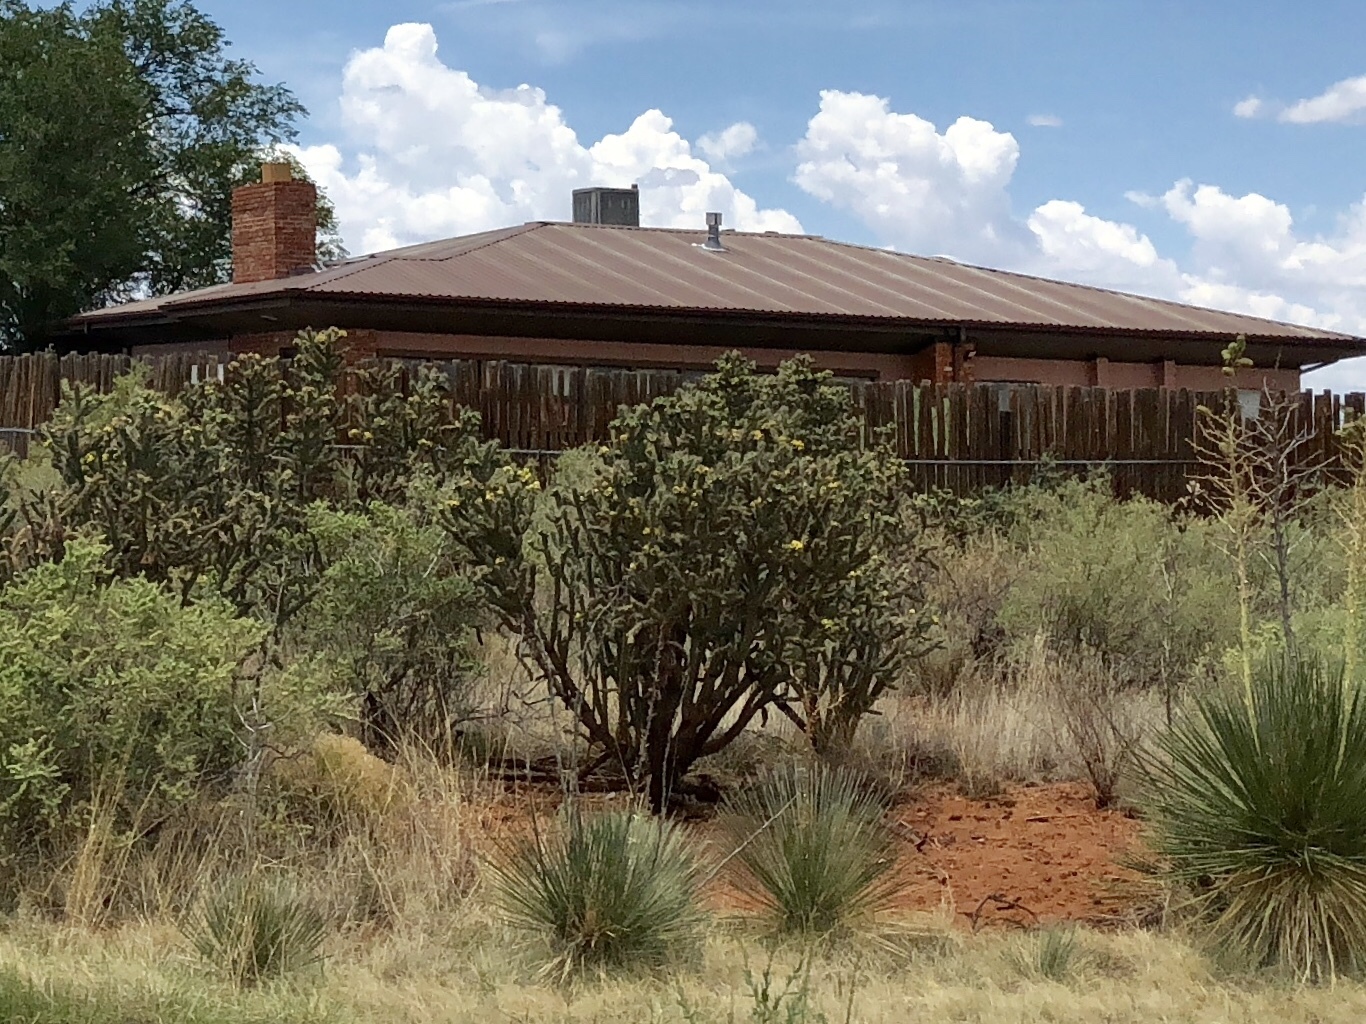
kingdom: Plantae
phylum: Tracheophyta
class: Magnoliopsida
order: Caryophyllales
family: Cactaceae
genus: Cylindropuntia
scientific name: Cylindropuntia imbricata
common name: Candelabrum cactus
